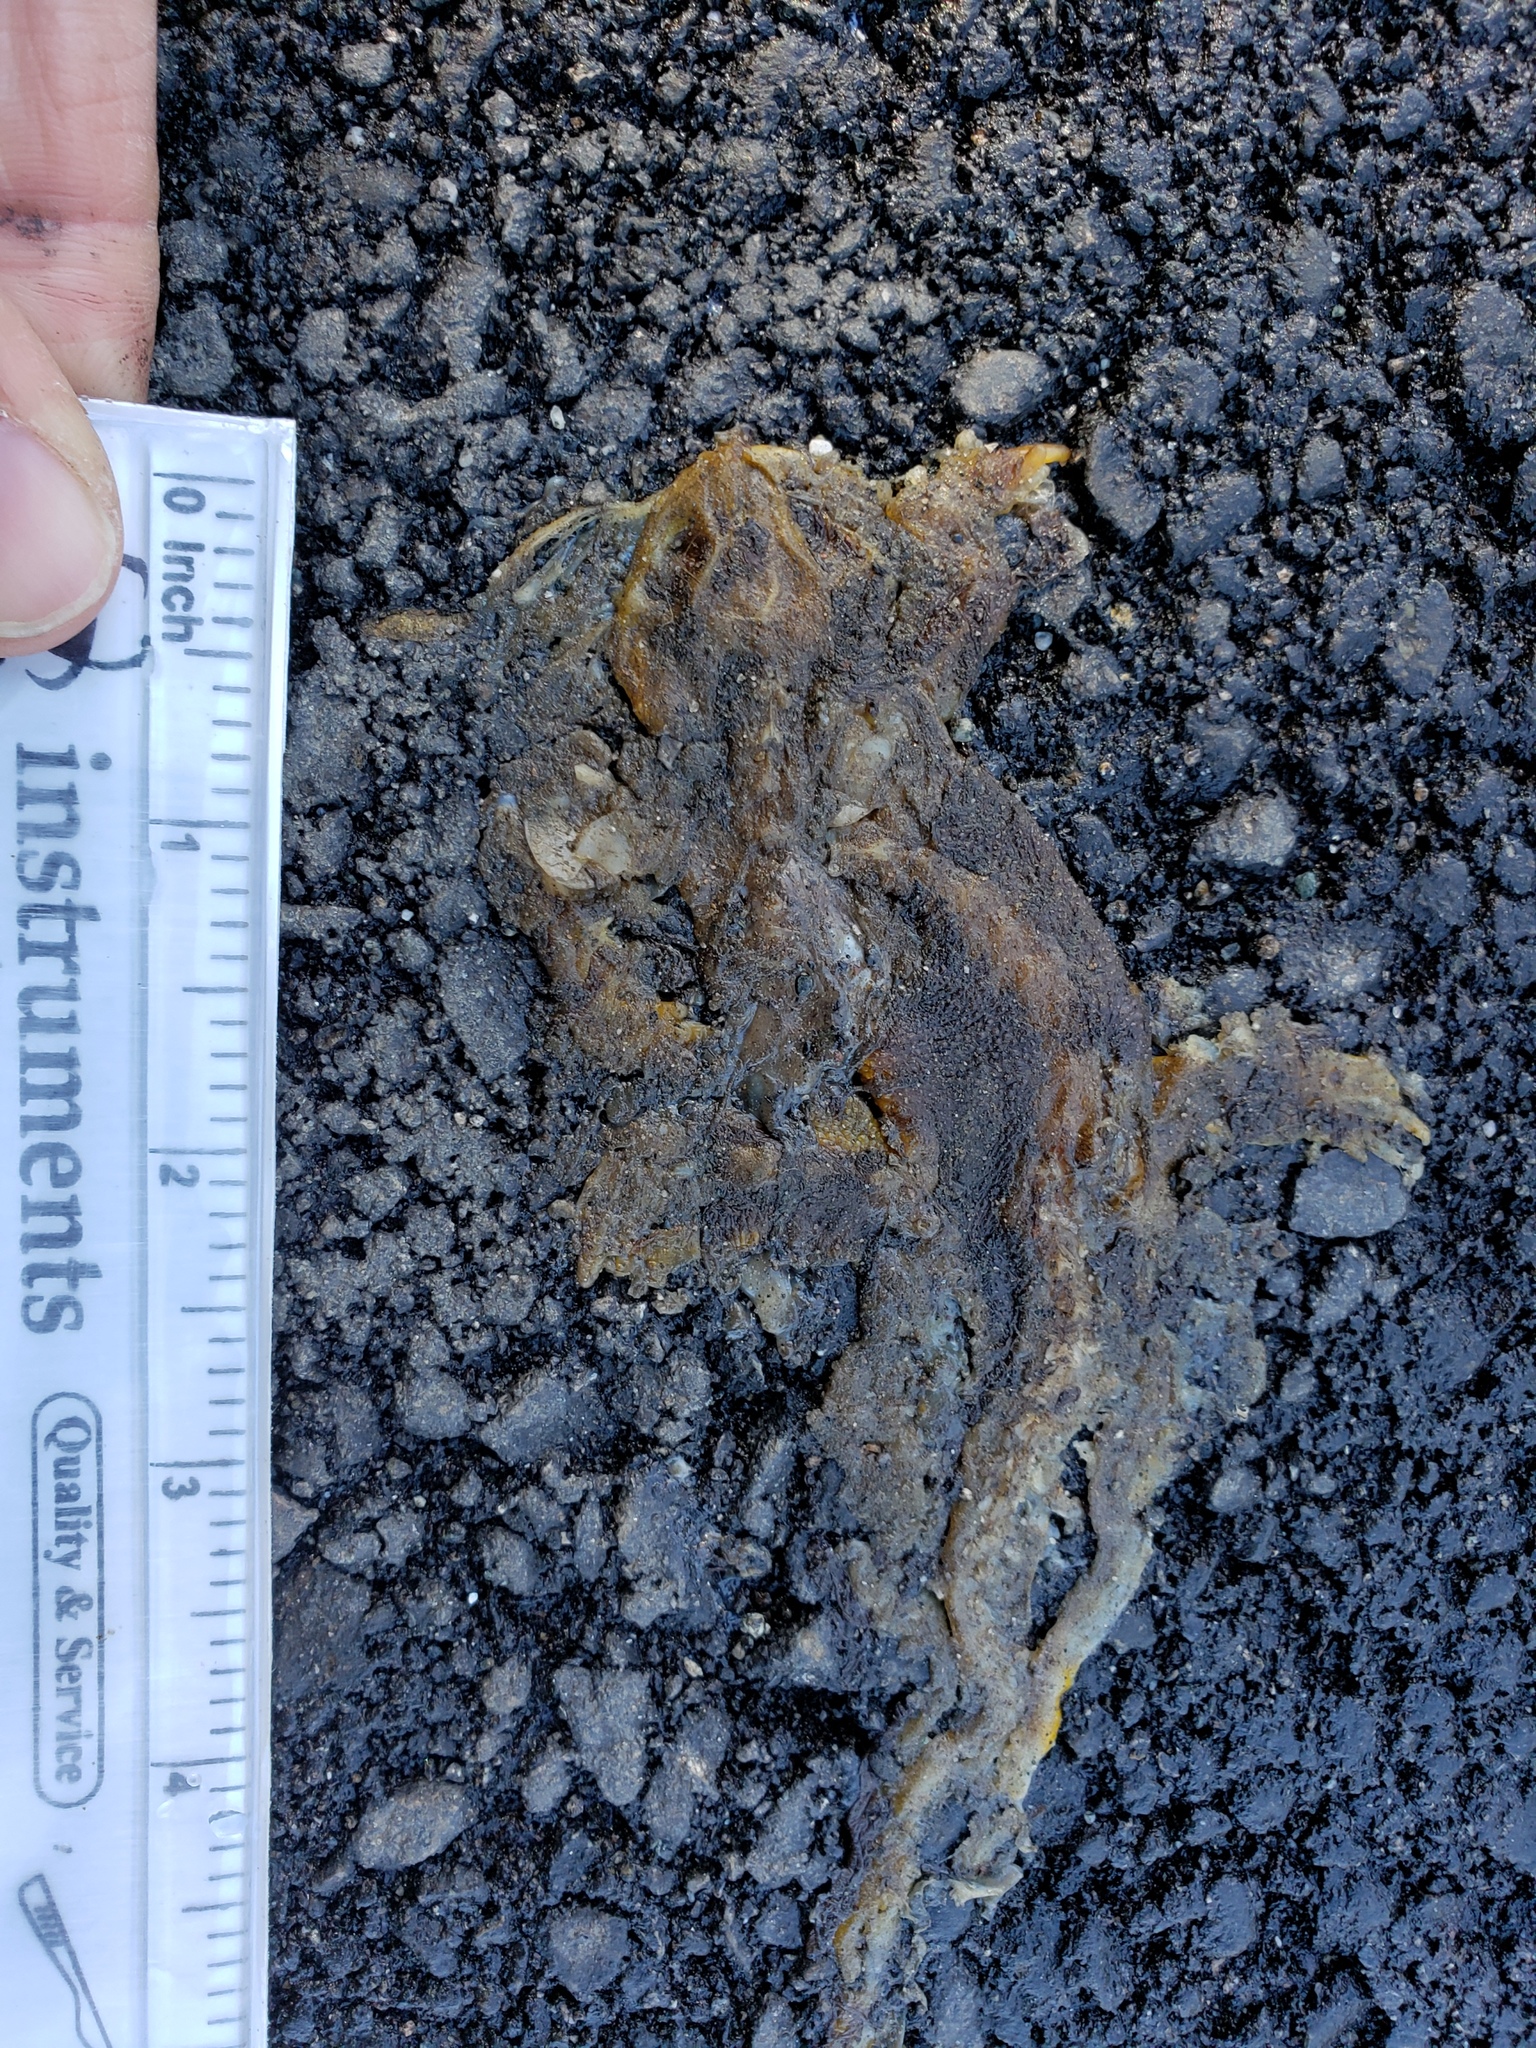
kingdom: Animalia
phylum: Chordata
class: Amphibia
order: Caudata
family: Salamandridae
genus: Taricha
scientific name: Taricha
